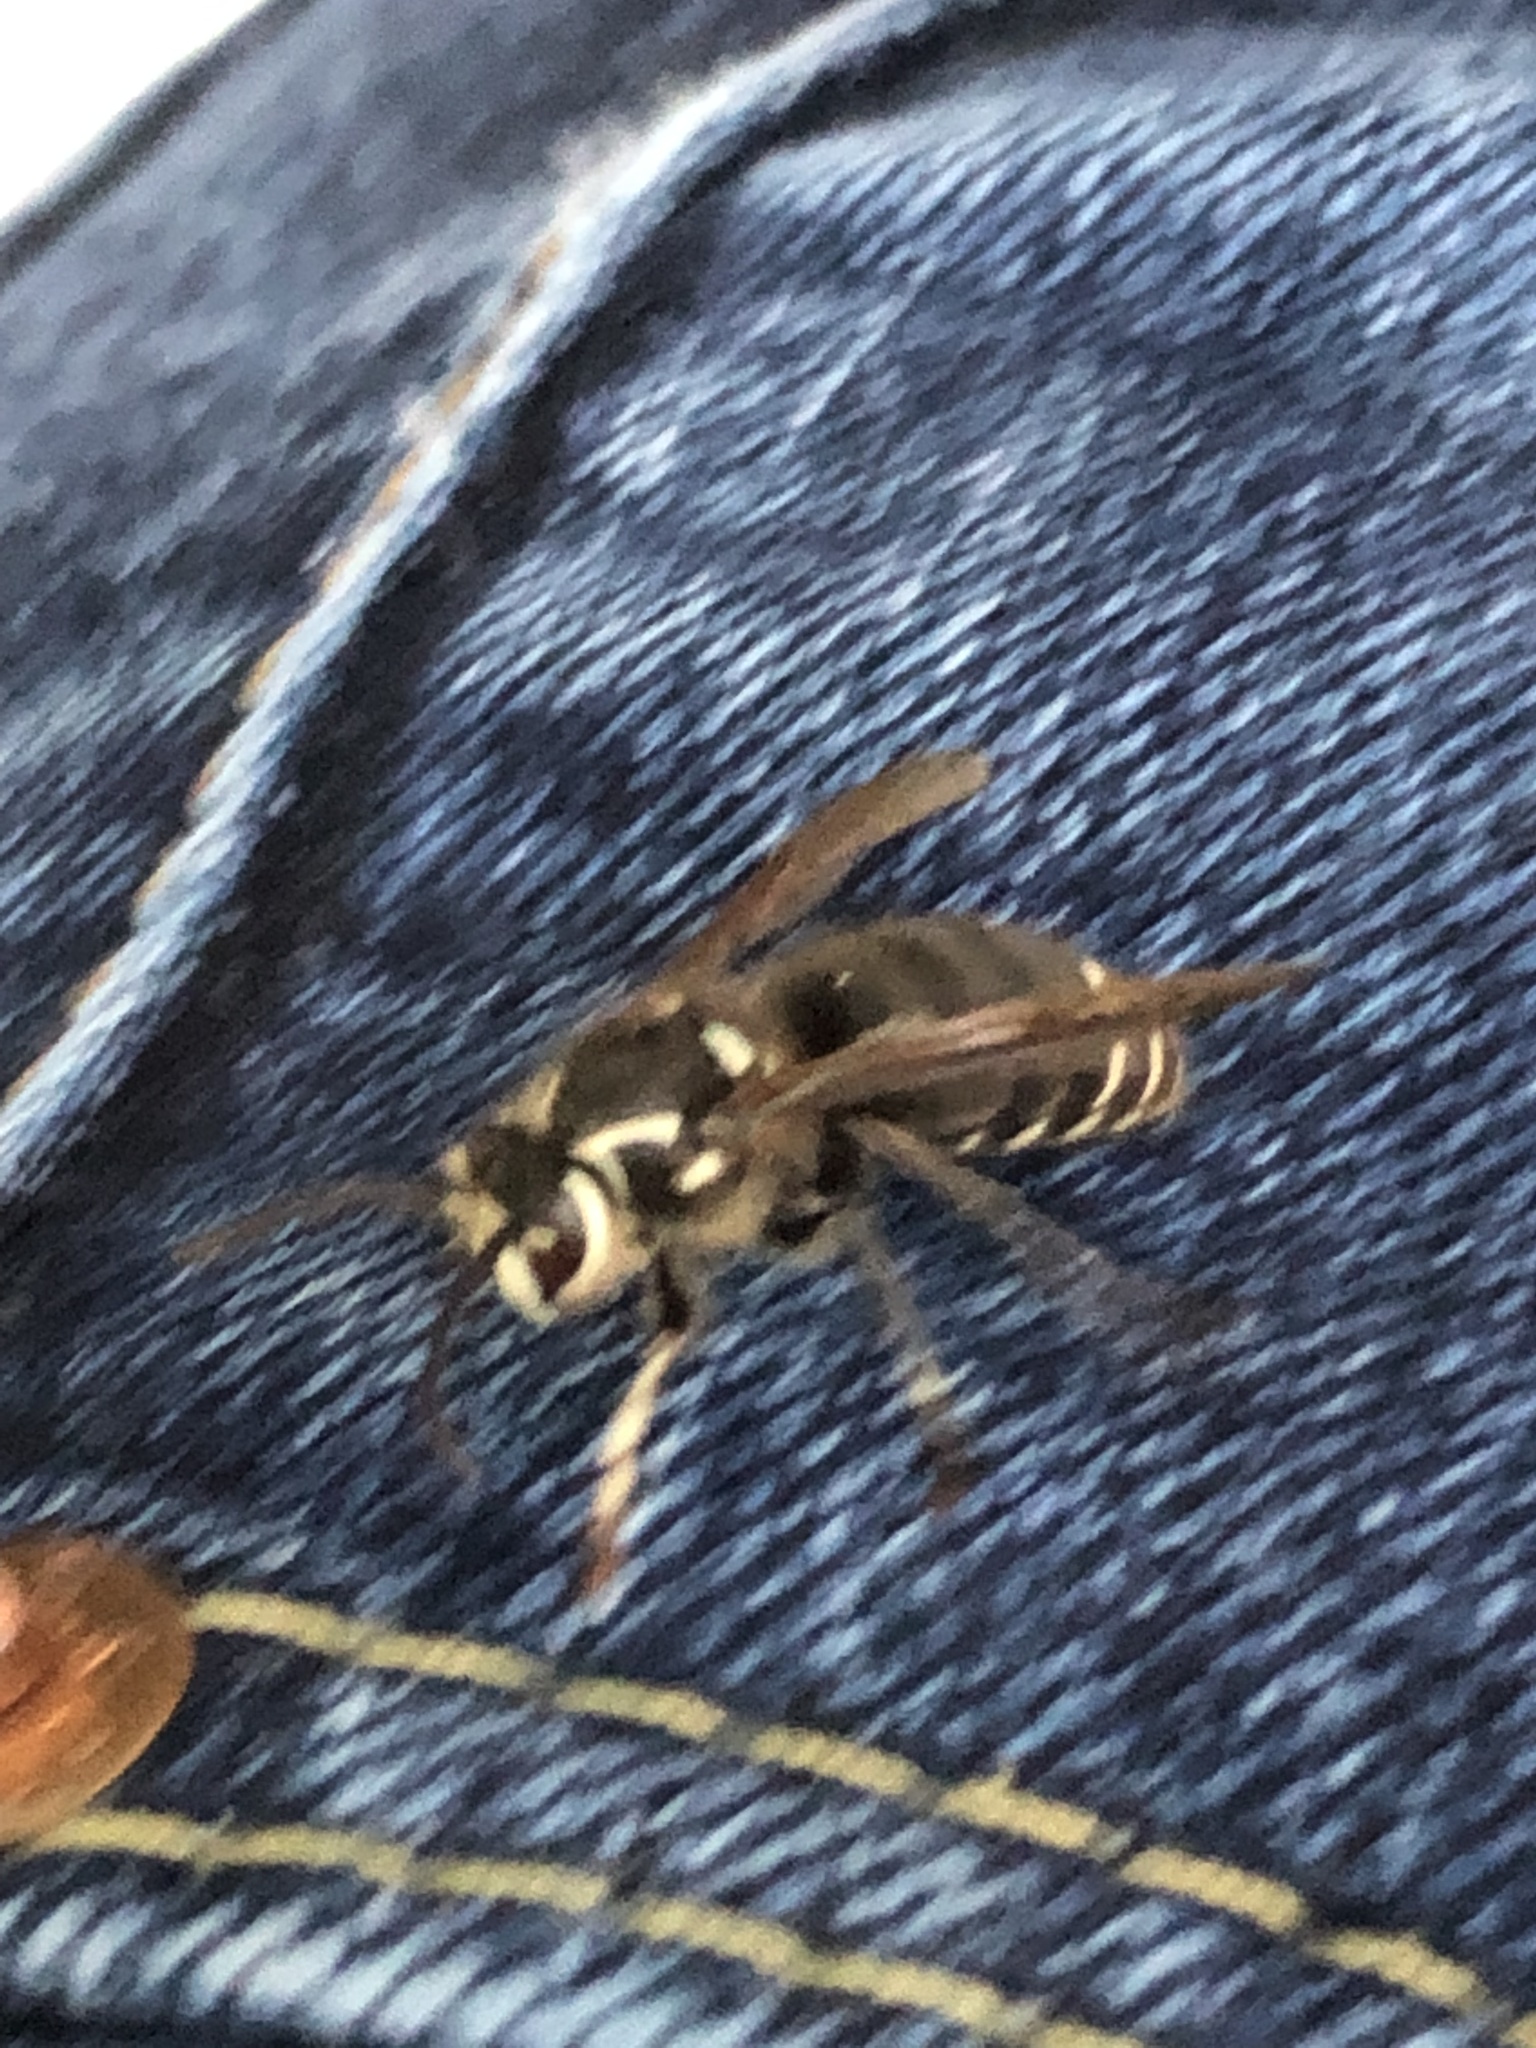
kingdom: Animalia
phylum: Arthropoda
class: Insecta
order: Hymenoptera
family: Vespidae
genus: Dolichovespula
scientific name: Dolichovespula maculata
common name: Bald-faced hornet
